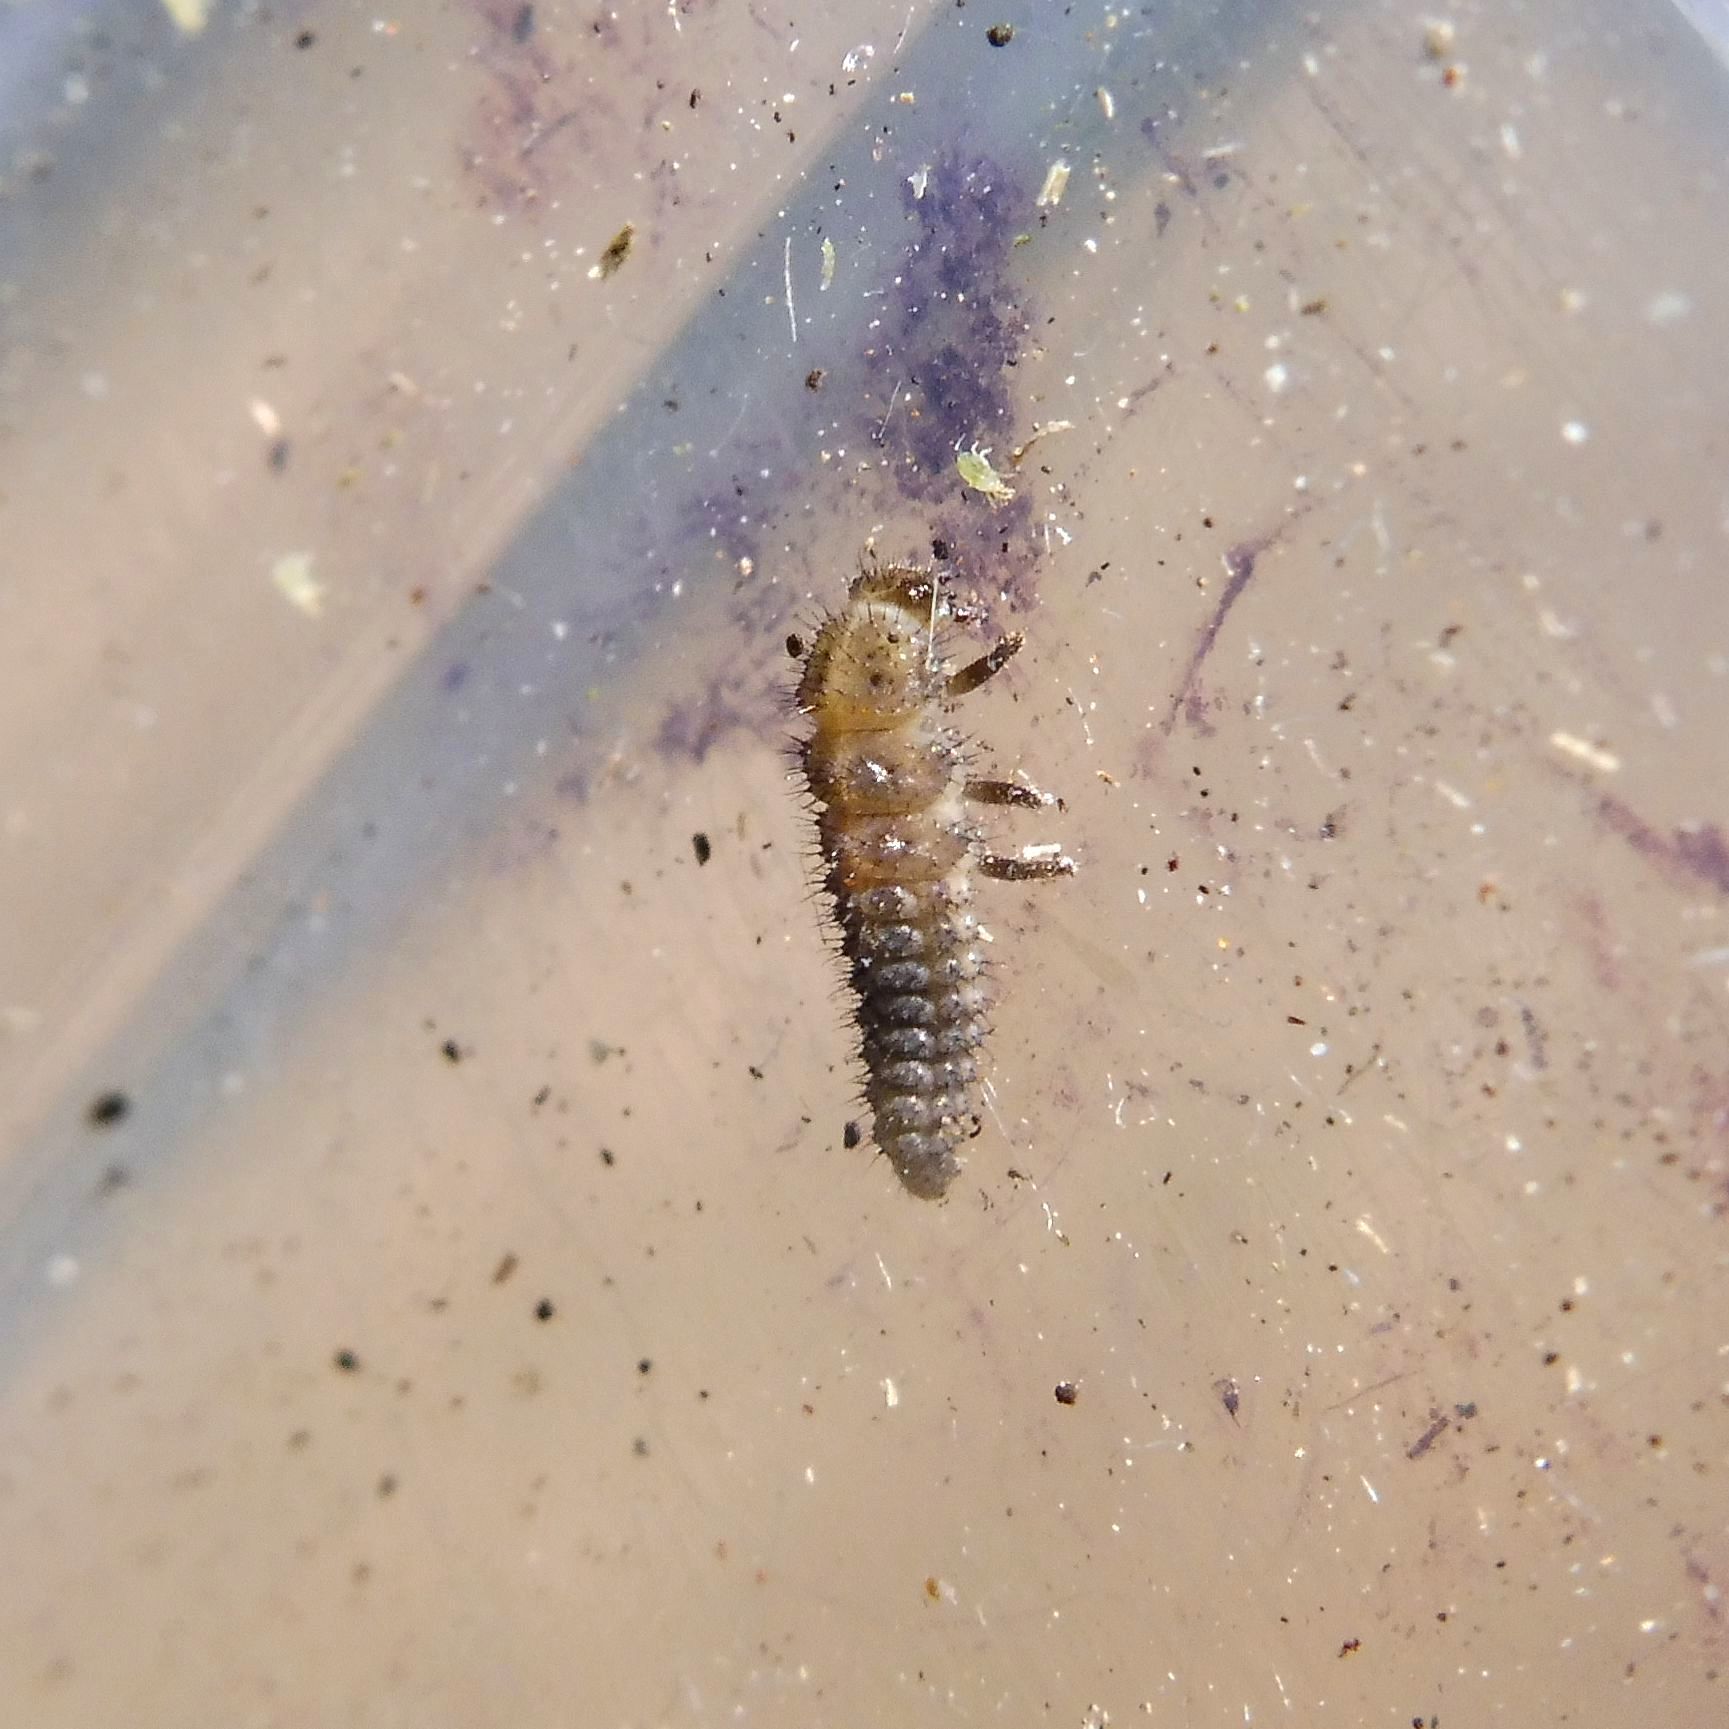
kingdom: Animalia
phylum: Arthropoda
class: Insecta
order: Coleoptera
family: Coccinellidae
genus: Tytthaspis
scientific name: Tytthaspis sedecimpunctata
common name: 16-spot ladybird
